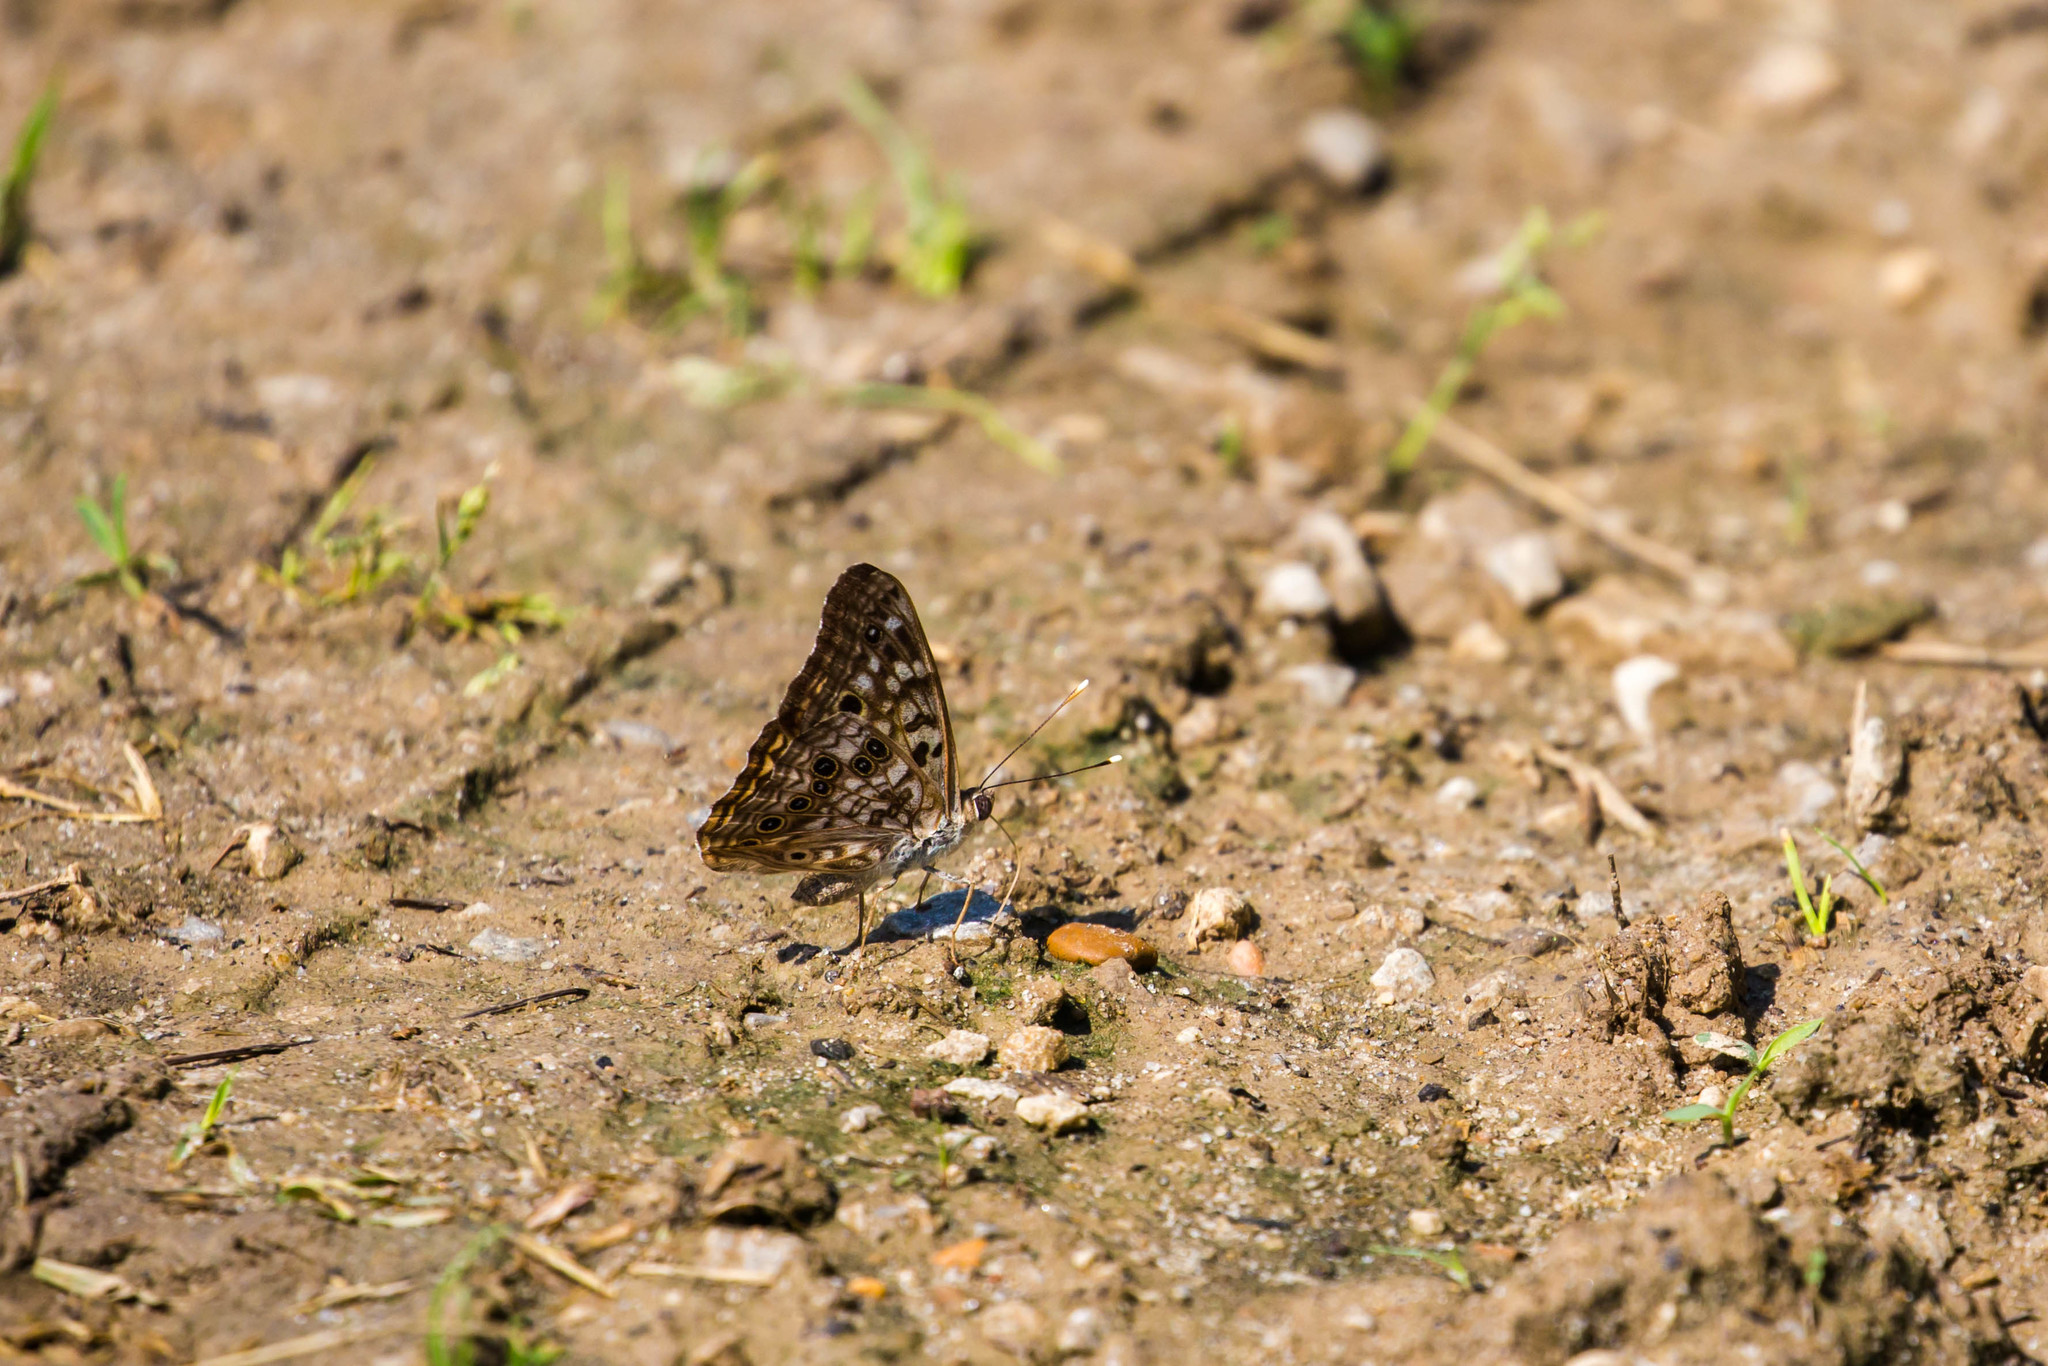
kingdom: Animalia
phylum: Arthropoda
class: Insecta
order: Lepidoptera
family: Nymphalidae
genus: Asterocampa
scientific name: Asterocampa celtis
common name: Hackberry emperor
